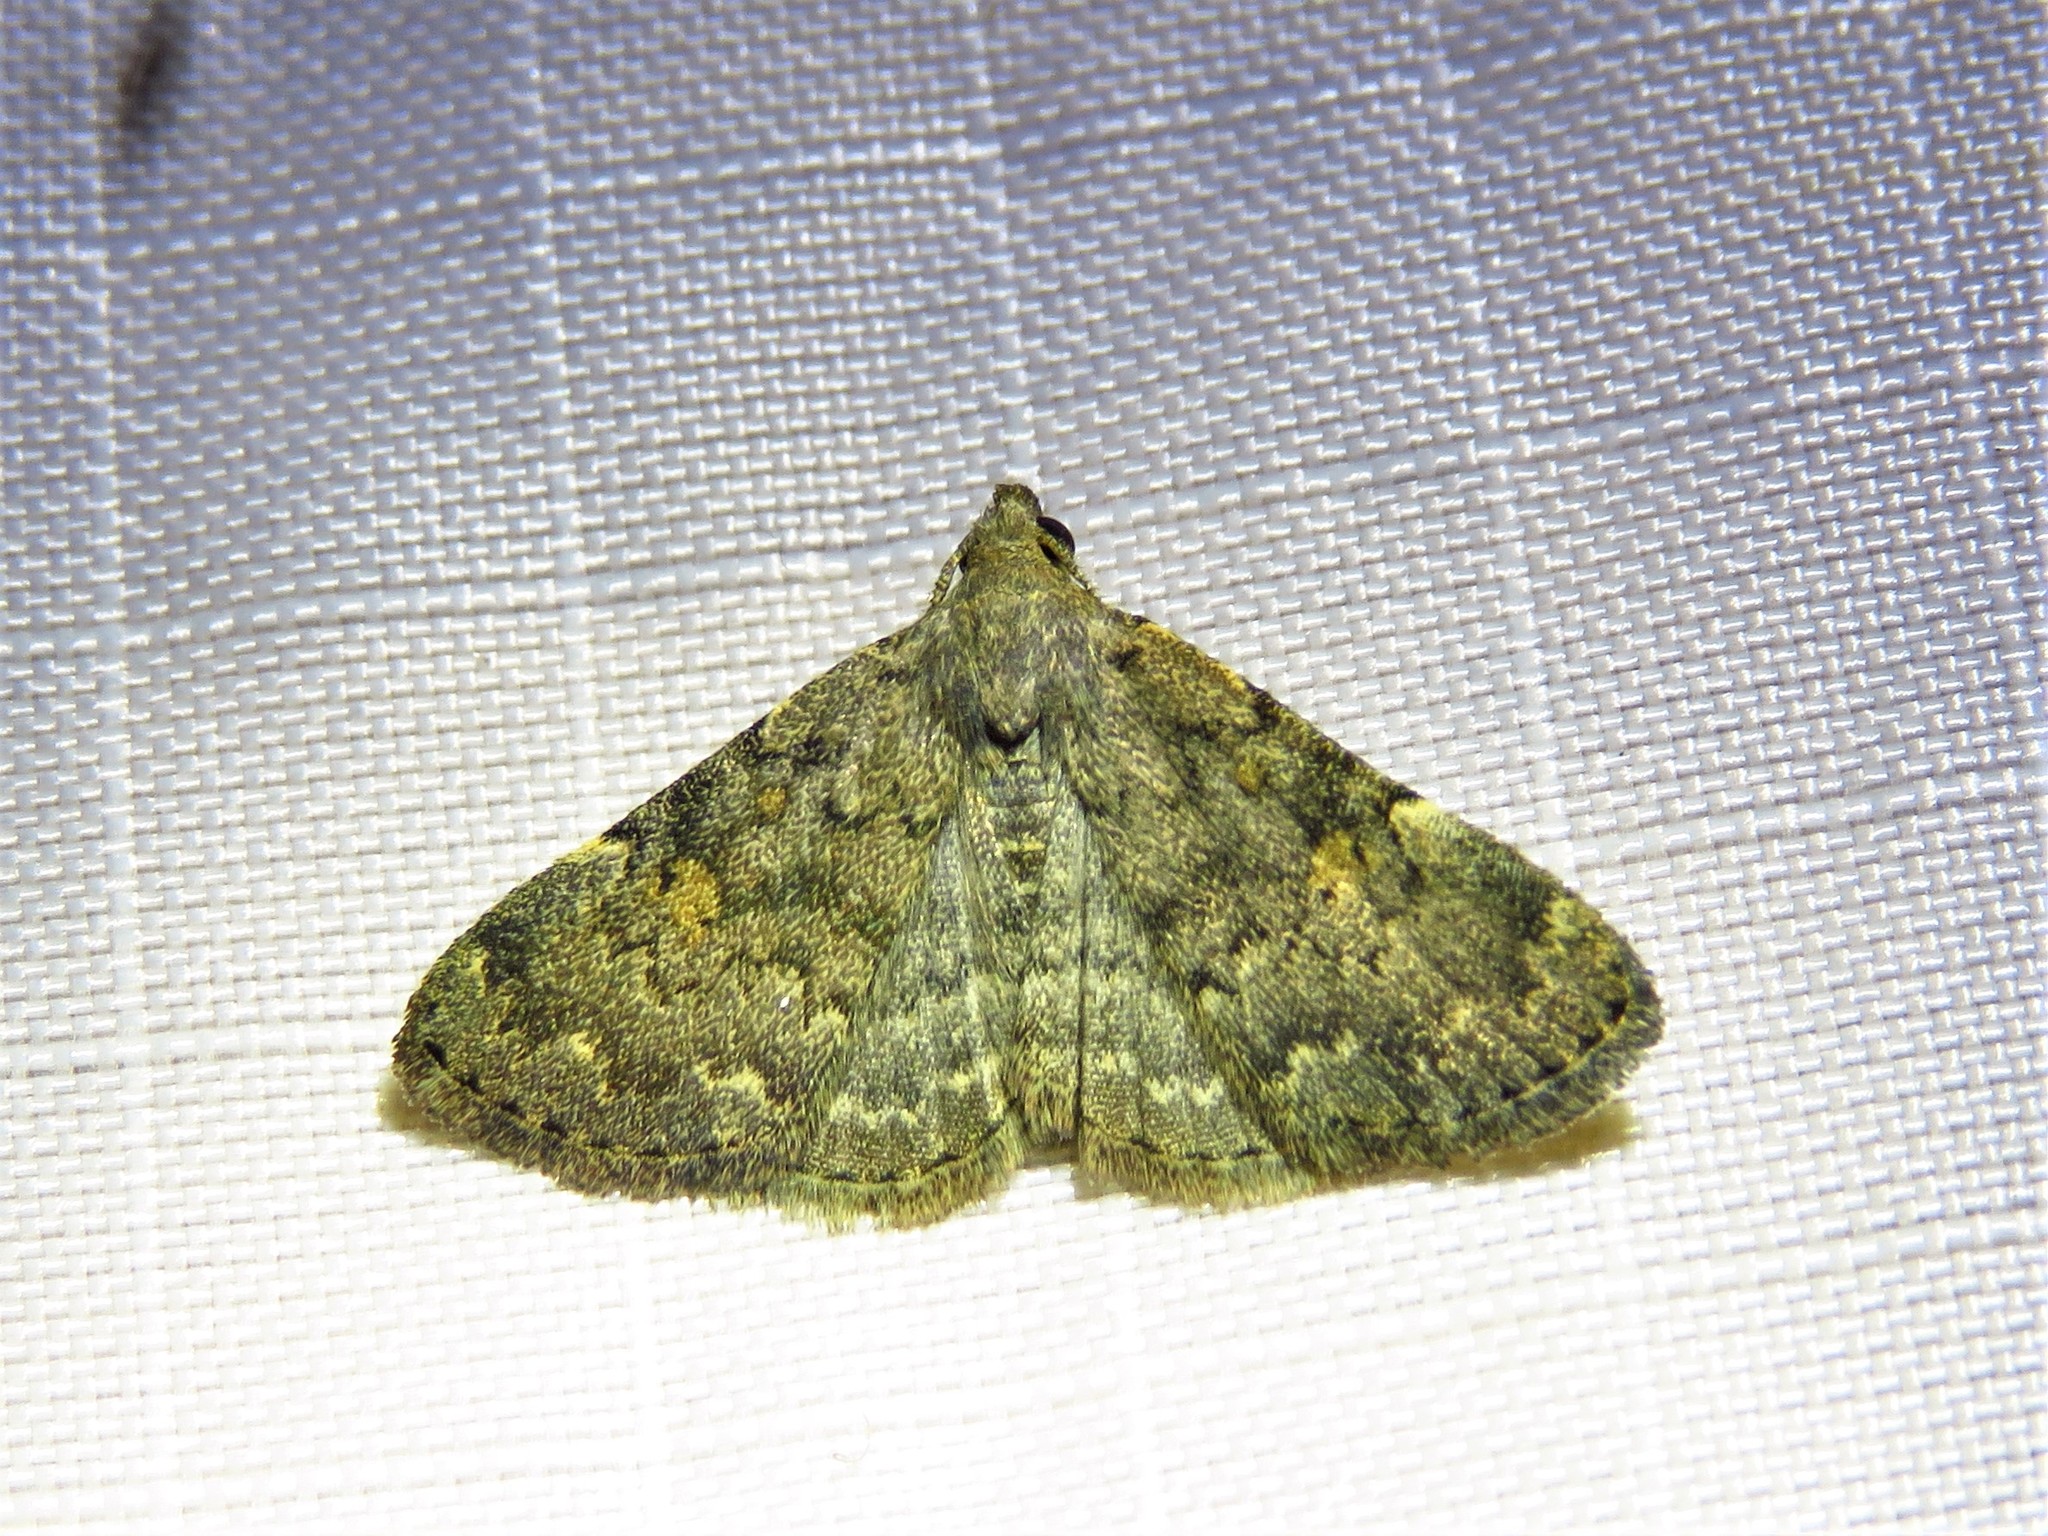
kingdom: Animalia
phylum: Arthropoda
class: Insecta
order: Lepidoptera
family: Erebidae
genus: Idia
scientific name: Idia aemula
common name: Common idia moth
